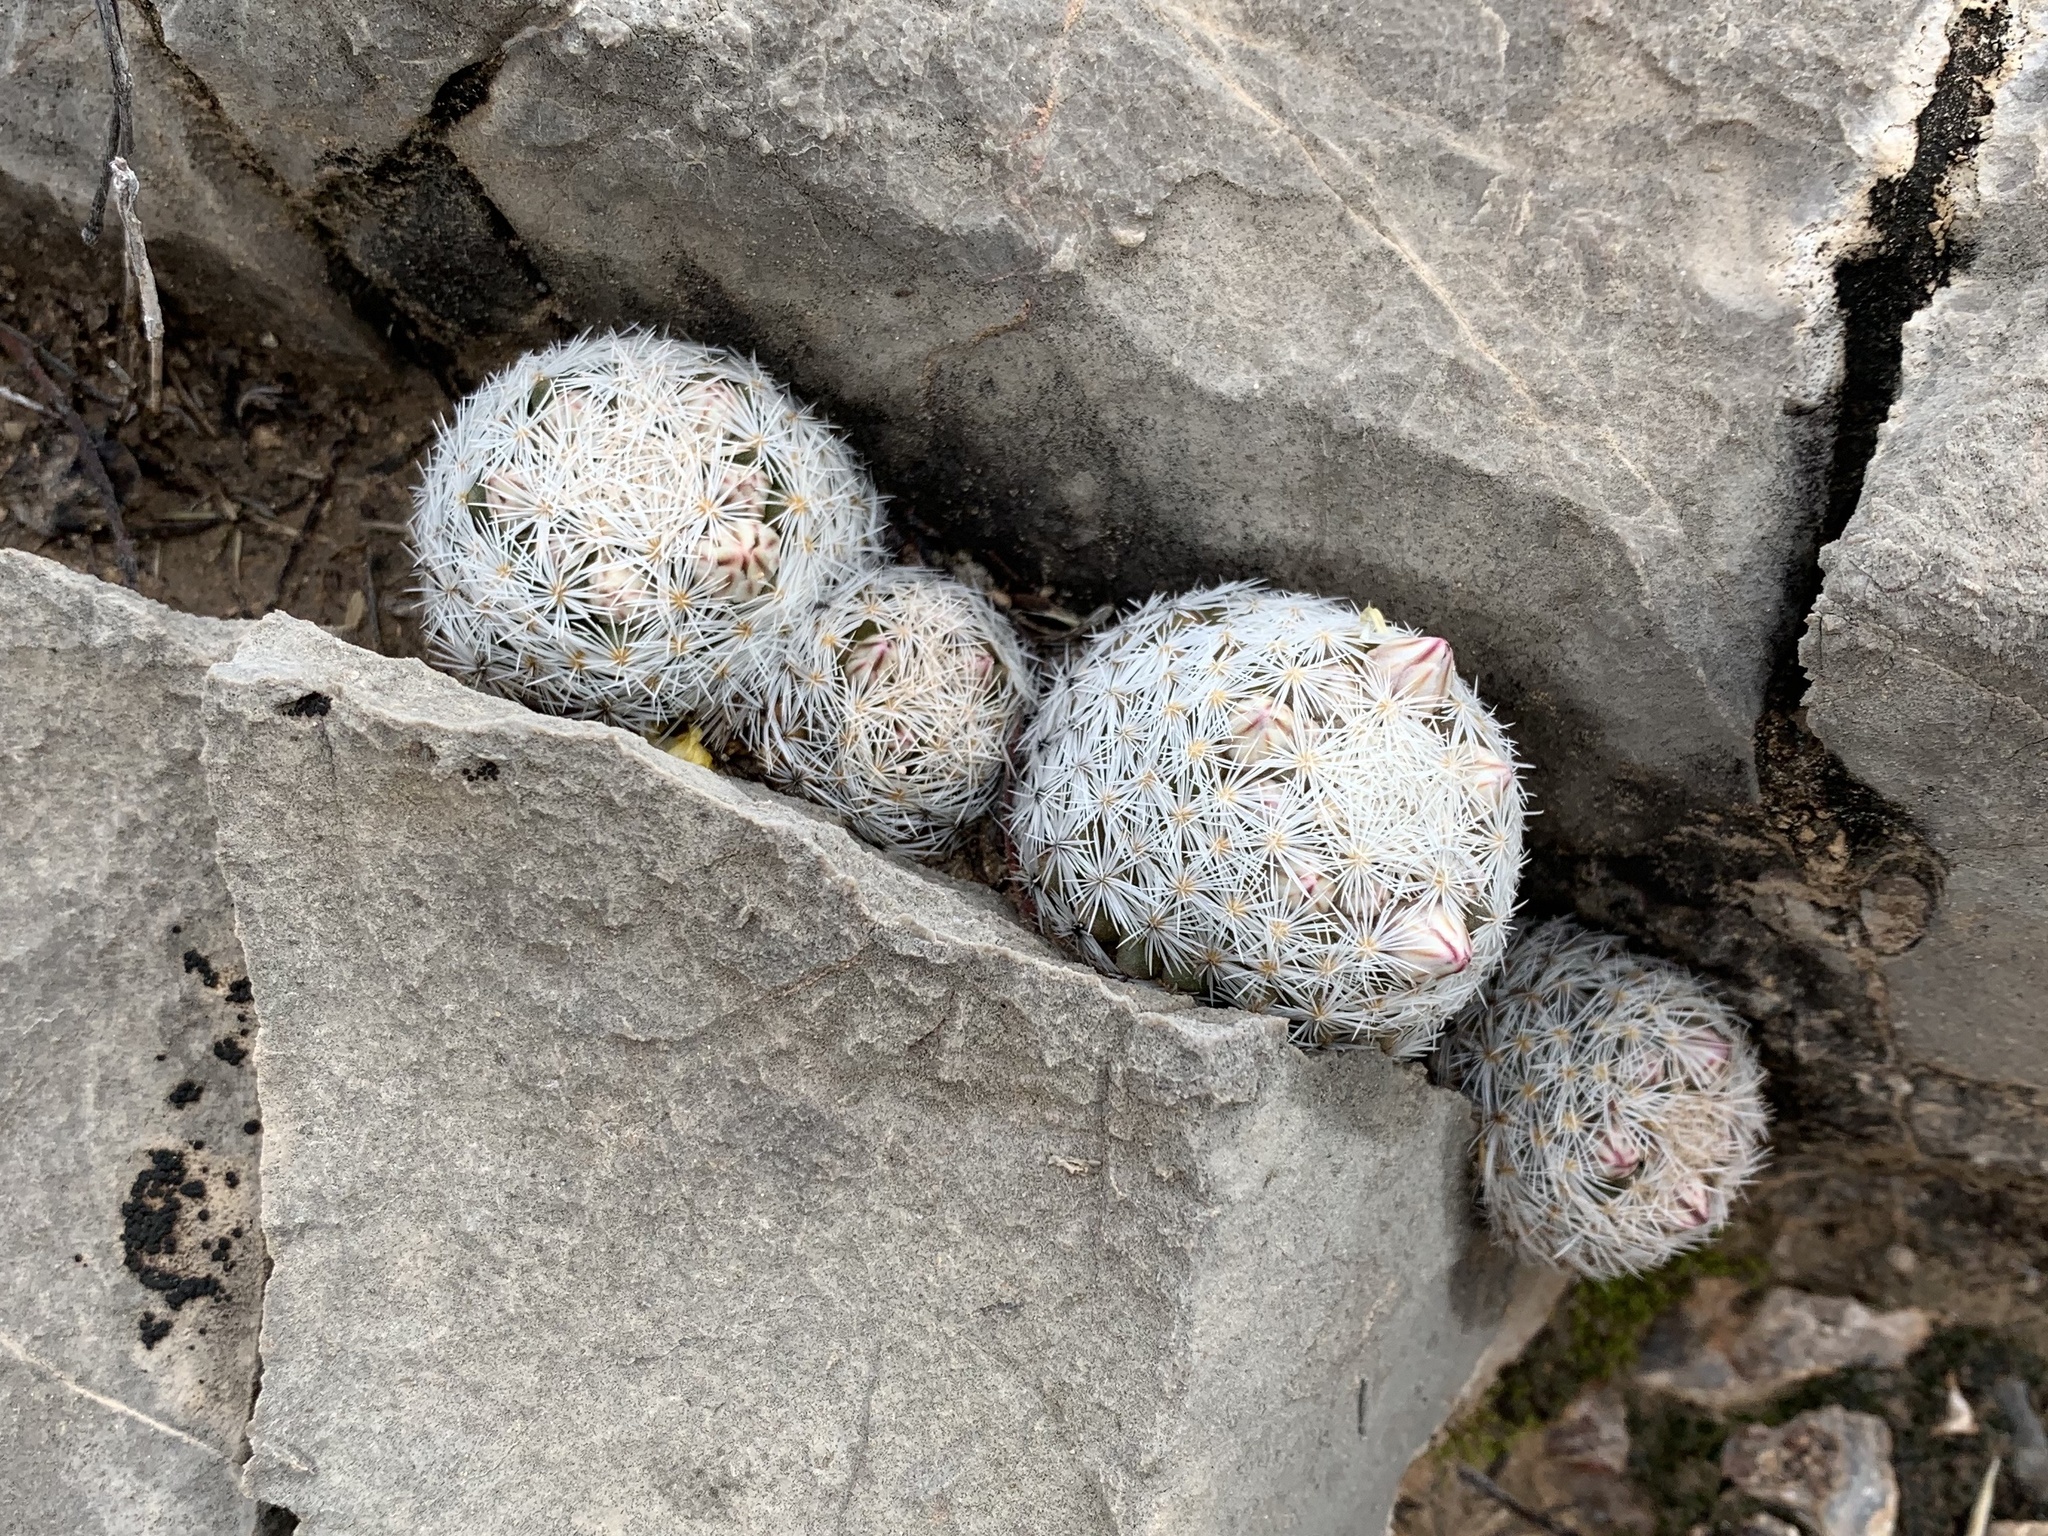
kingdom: Plantae
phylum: Tracheophyta
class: Magnoliopsida
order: Caryophyllales
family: Cactaceae
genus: Mammillaria
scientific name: Mammillaria lasiacantha
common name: Lace-spine nipple cactus
